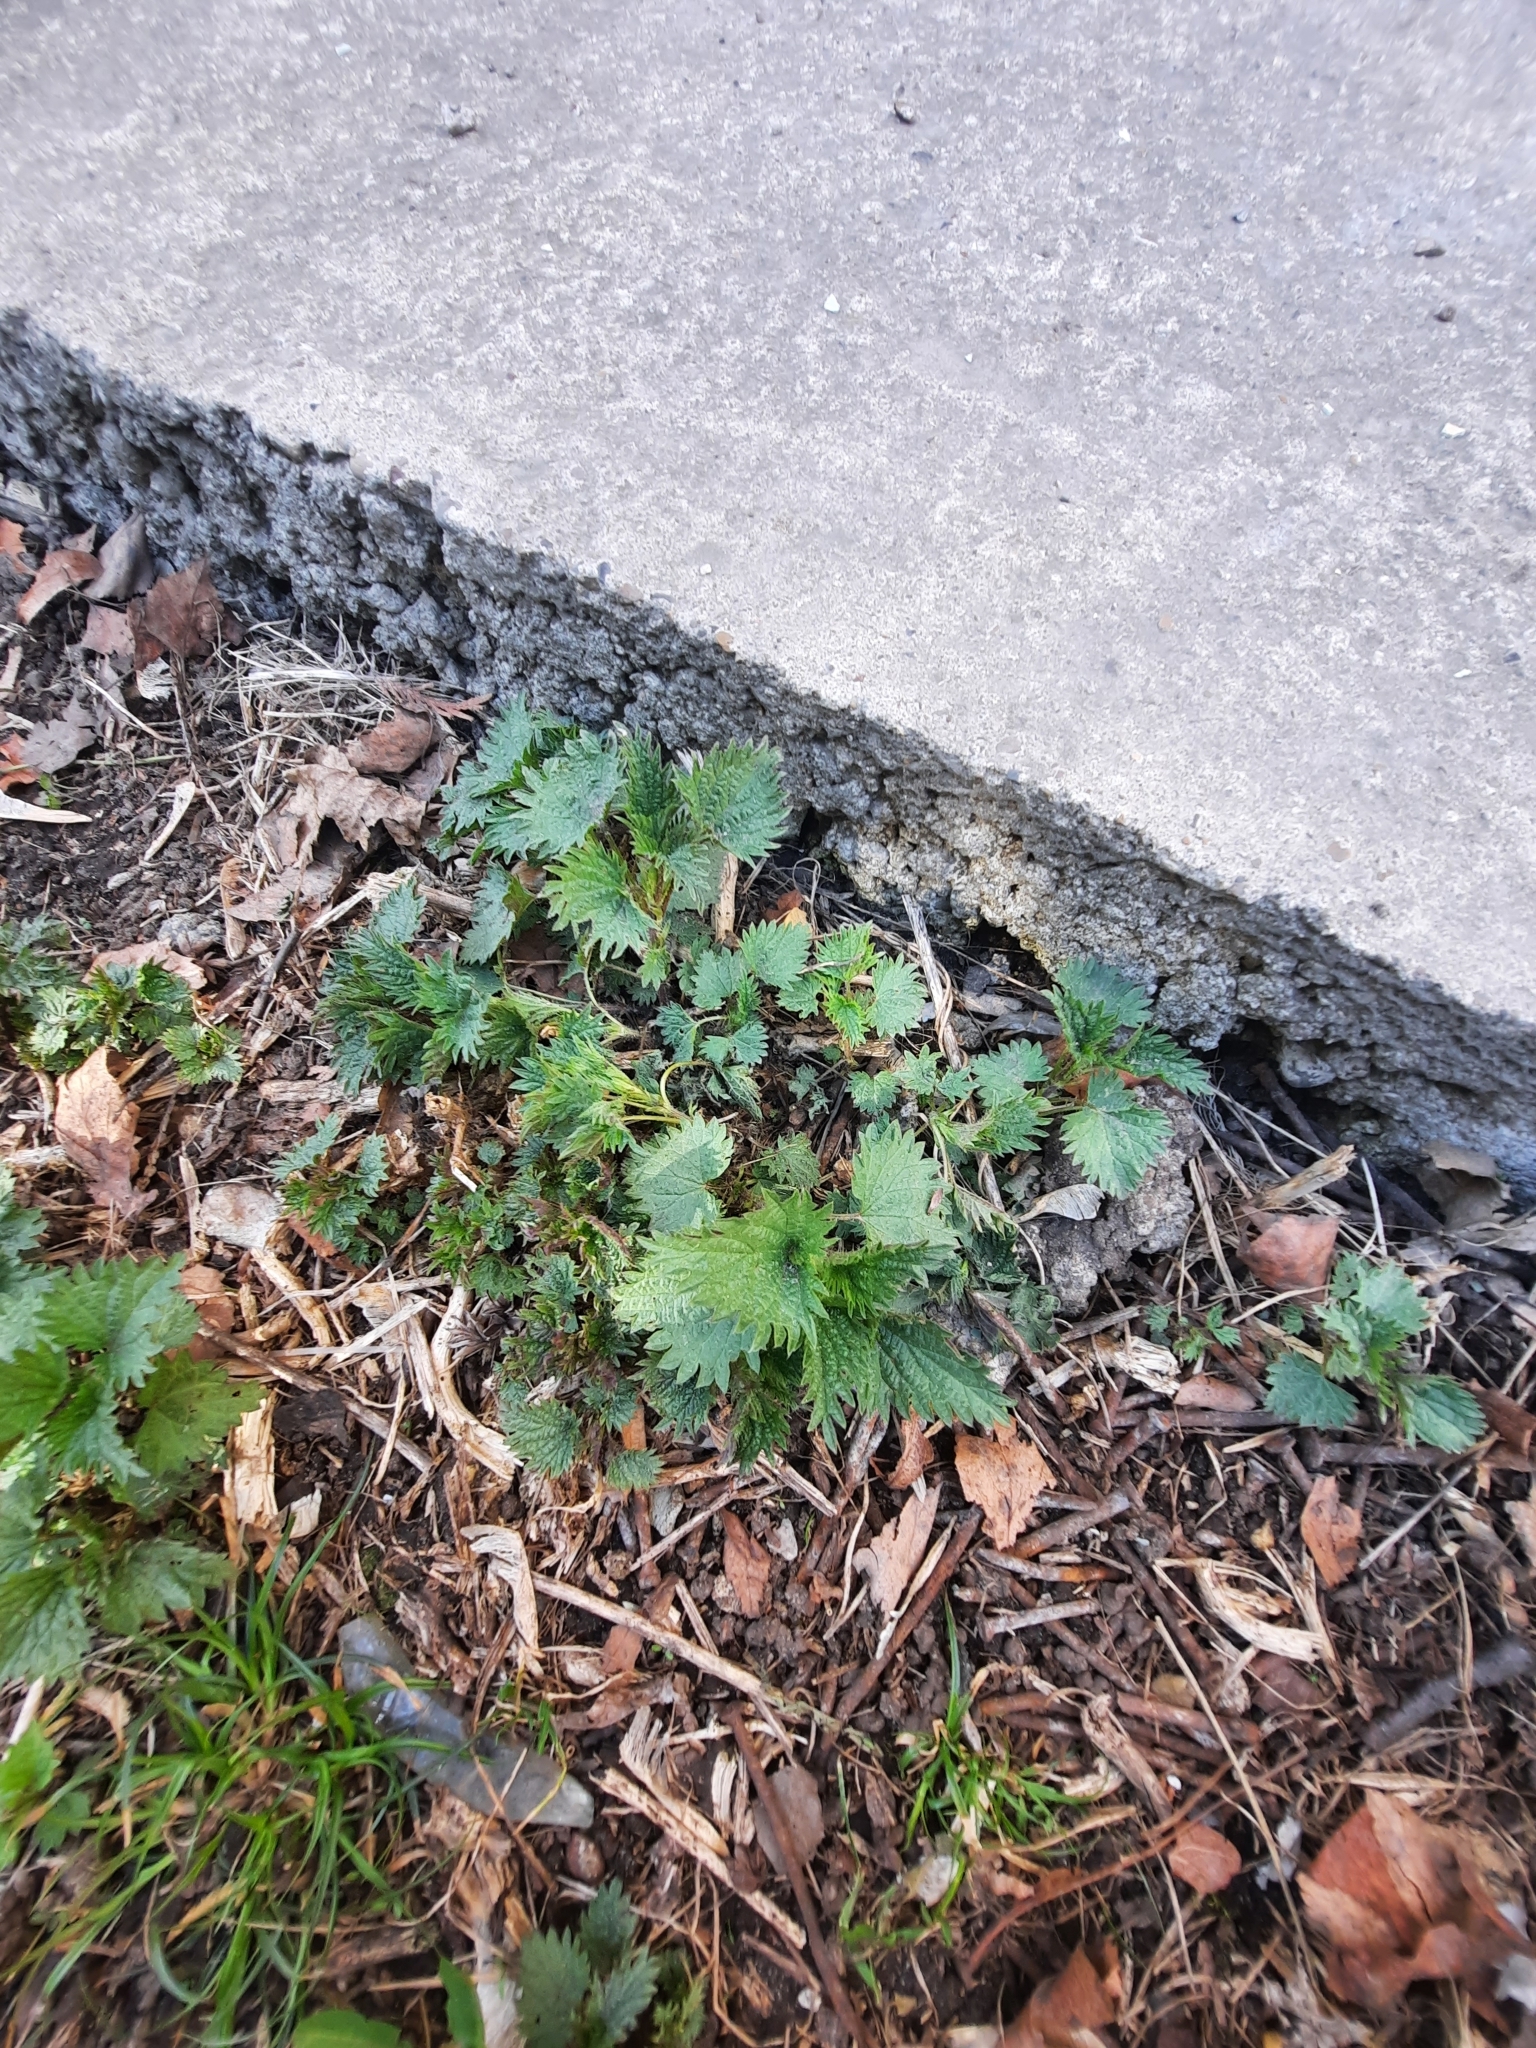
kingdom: Plantae
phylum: Tracheophyta
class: Magnoliopsida
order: Rosales
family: Urticaceae
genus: Urtica
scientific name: Urtica dioica
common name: Common nettle
